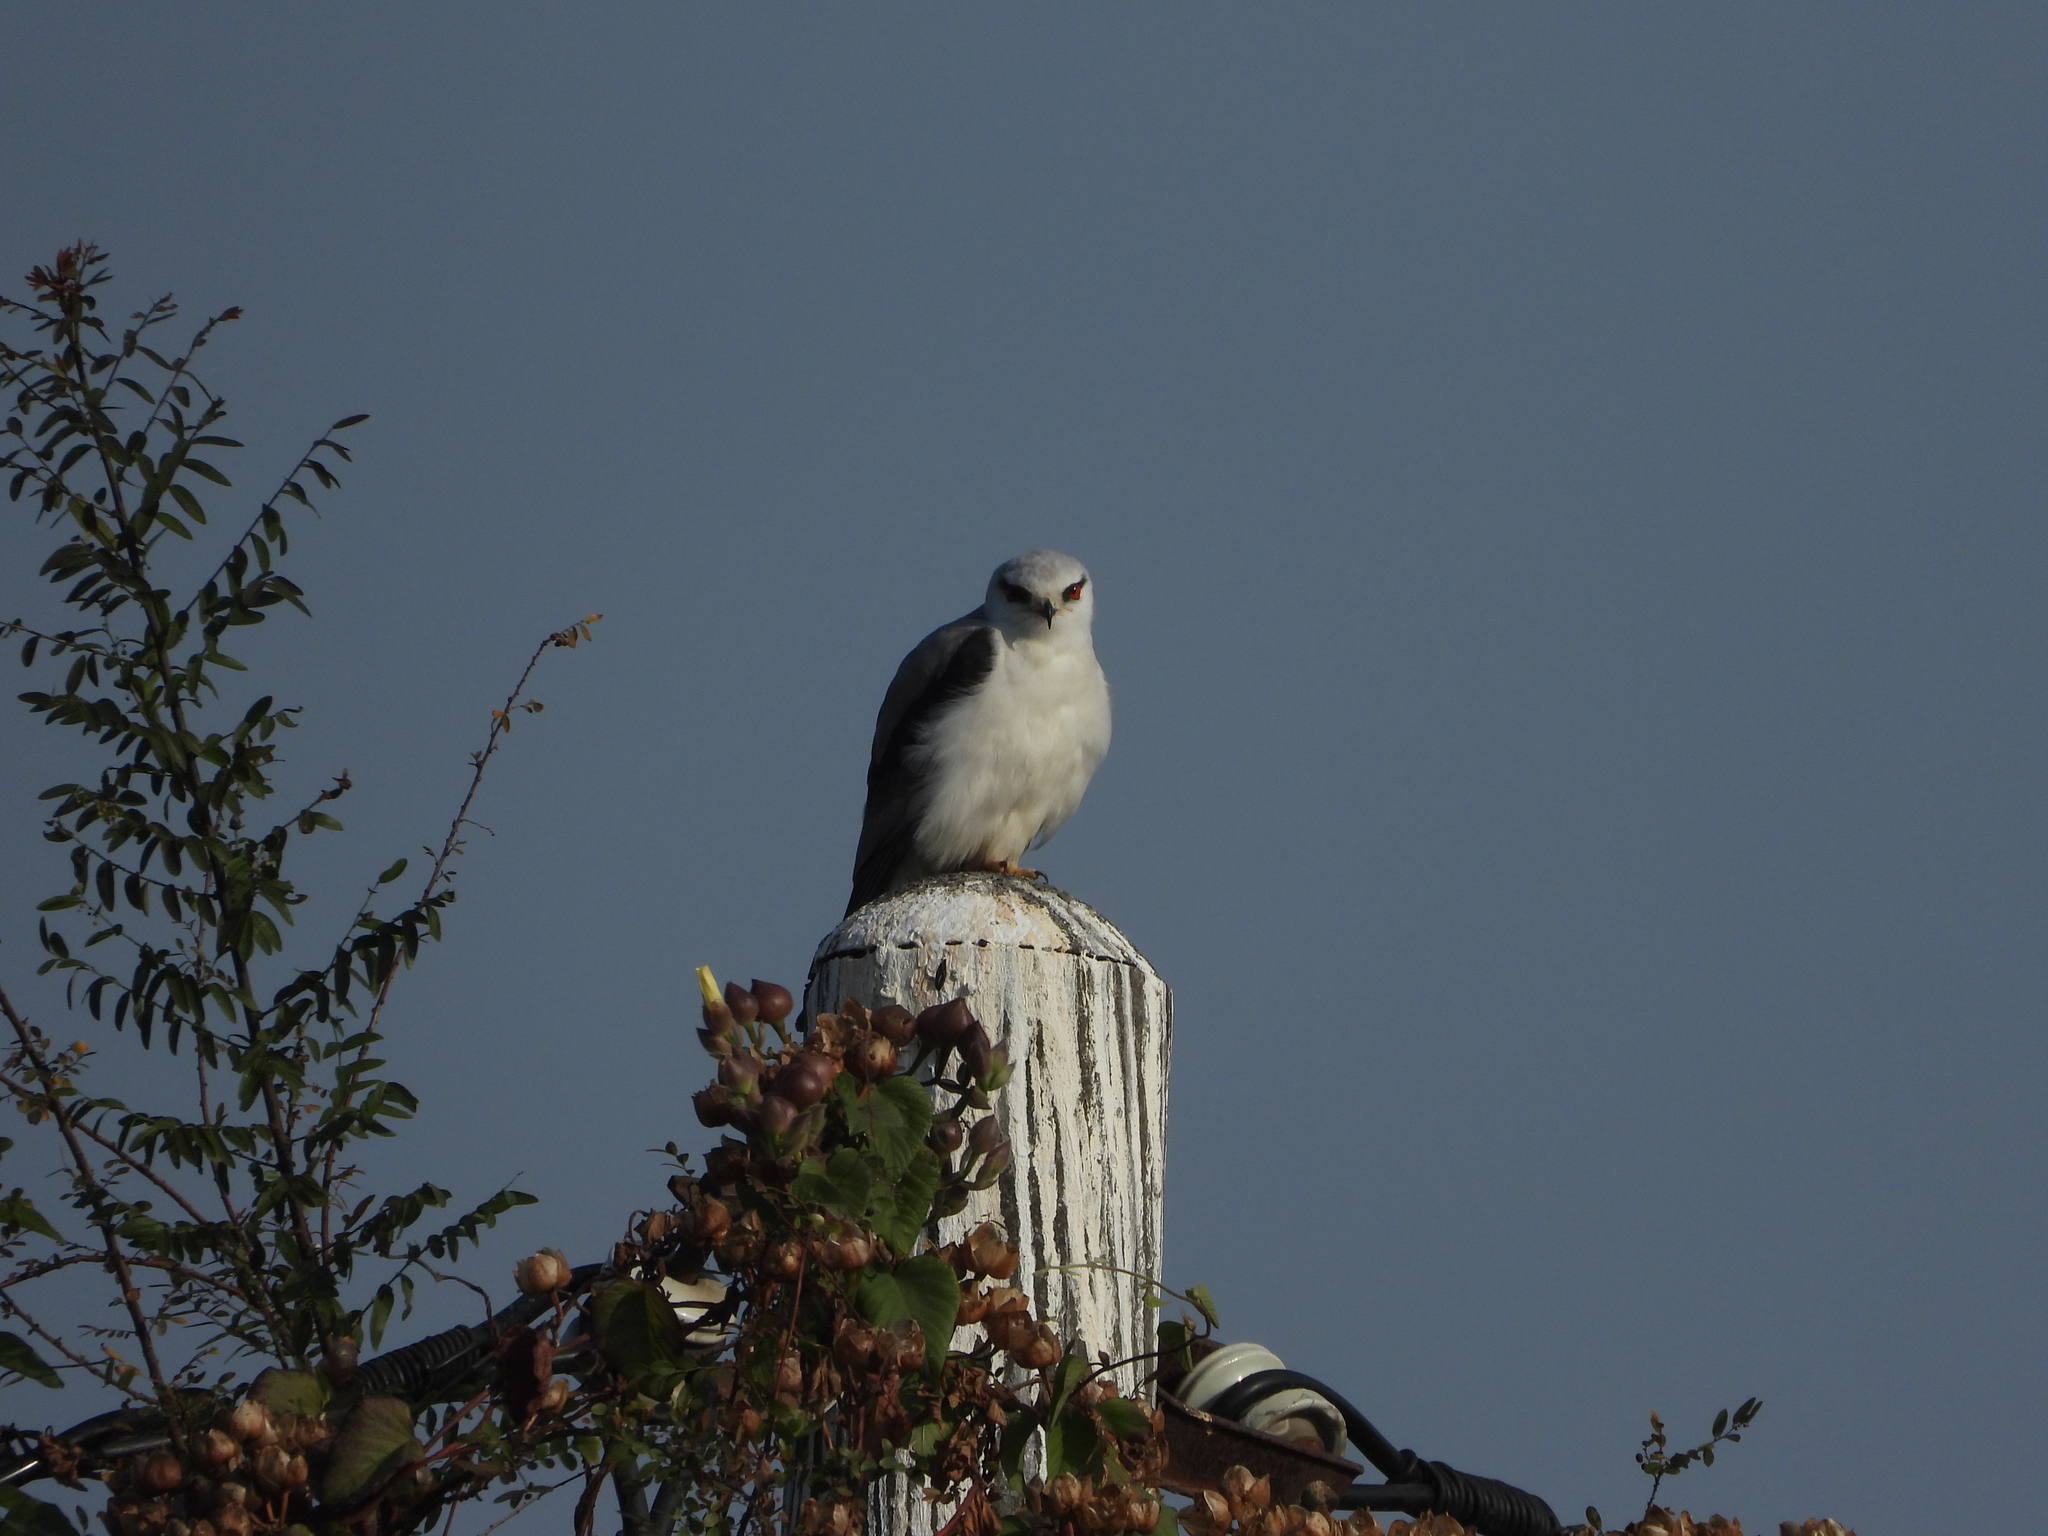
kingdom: Animalia
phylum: Chordata
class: Aves
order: Accipitriformes
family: Accipitridae
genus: Elanus
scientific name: Elanus caeruleus
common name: Black-winged kite
